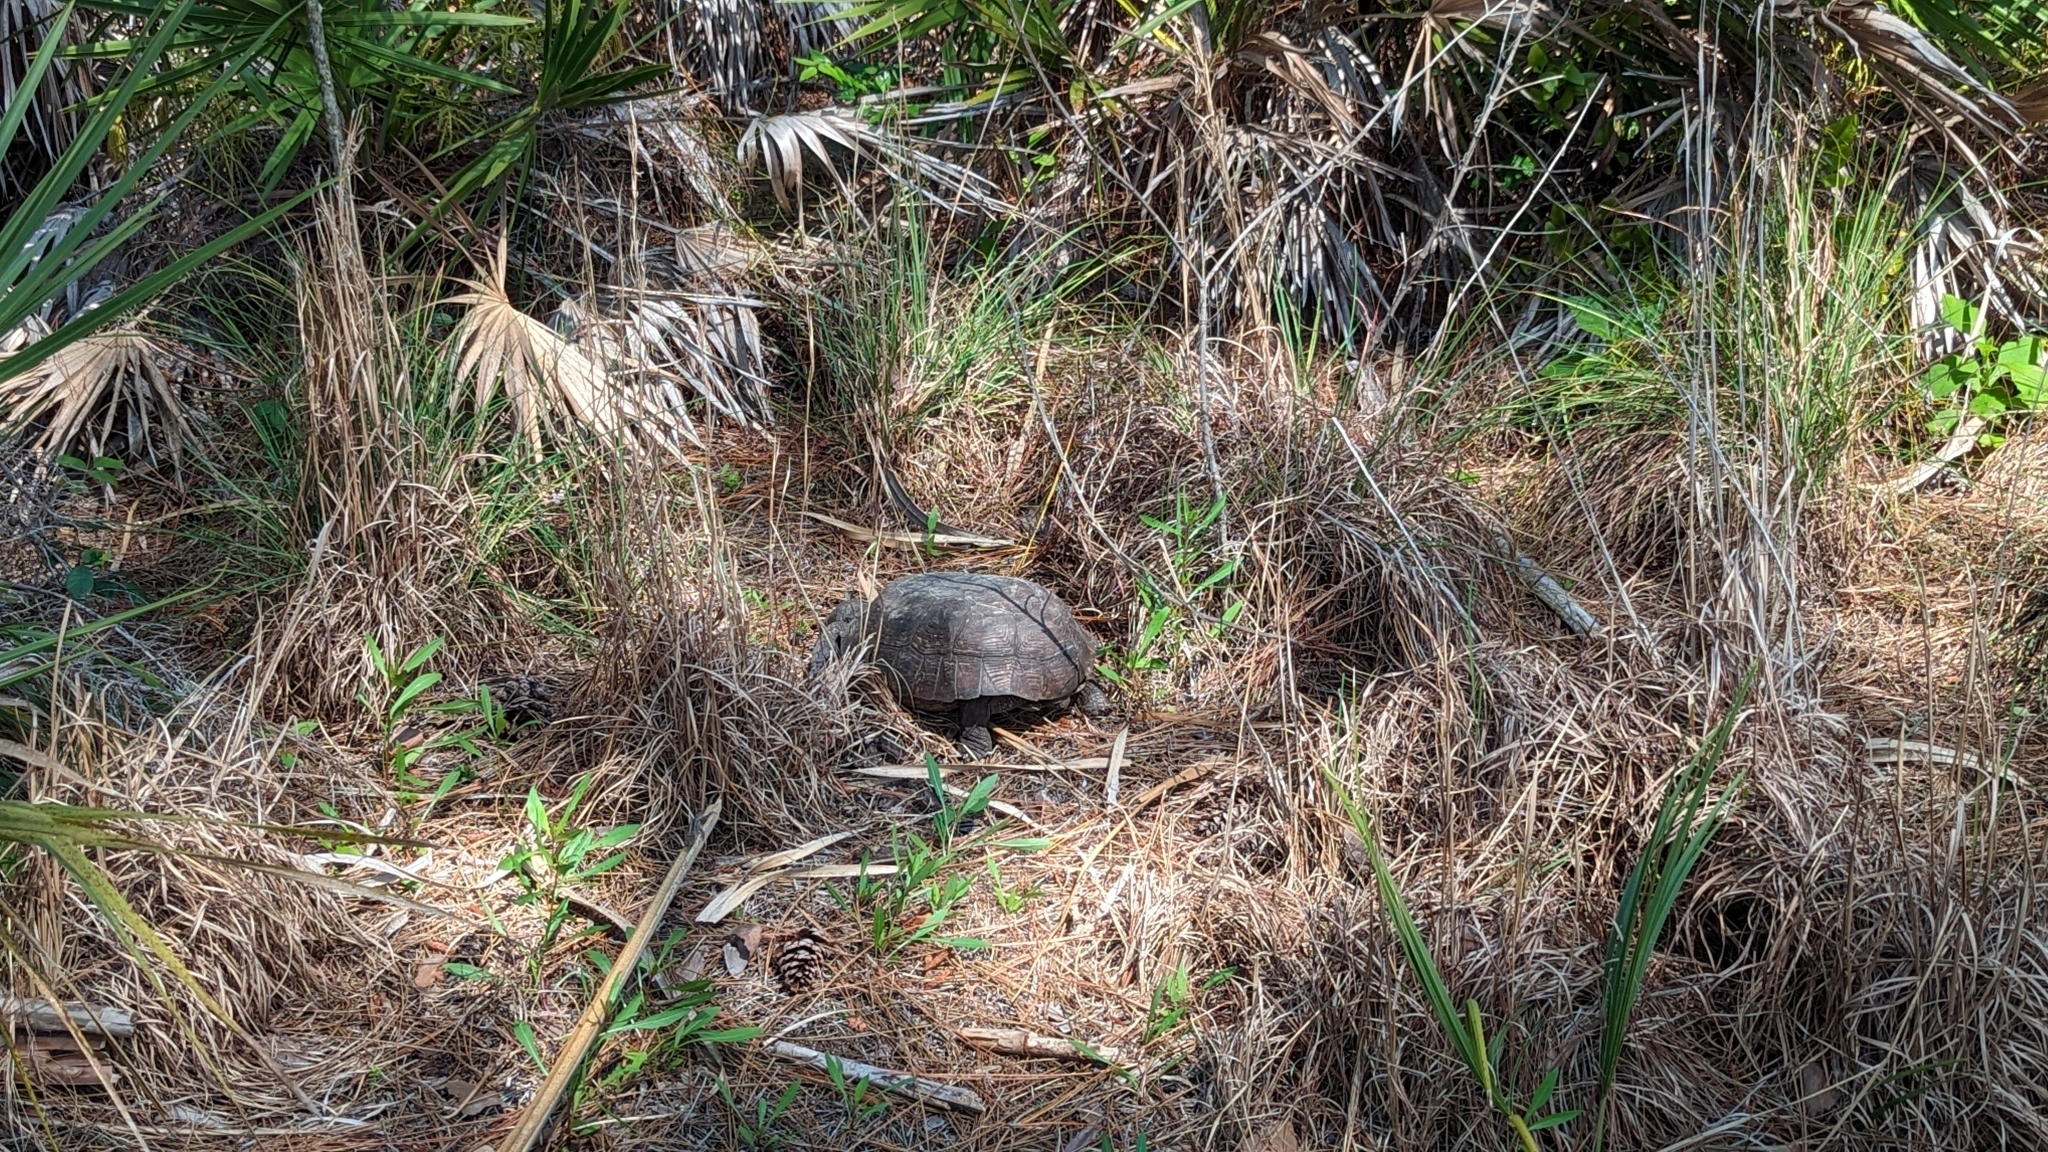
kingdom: Animalia
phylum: Chordata
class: Testudines
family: Testudinidae
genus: Gopherus
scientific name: Gopherus polyphemus
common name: Florida gopher tortoise
